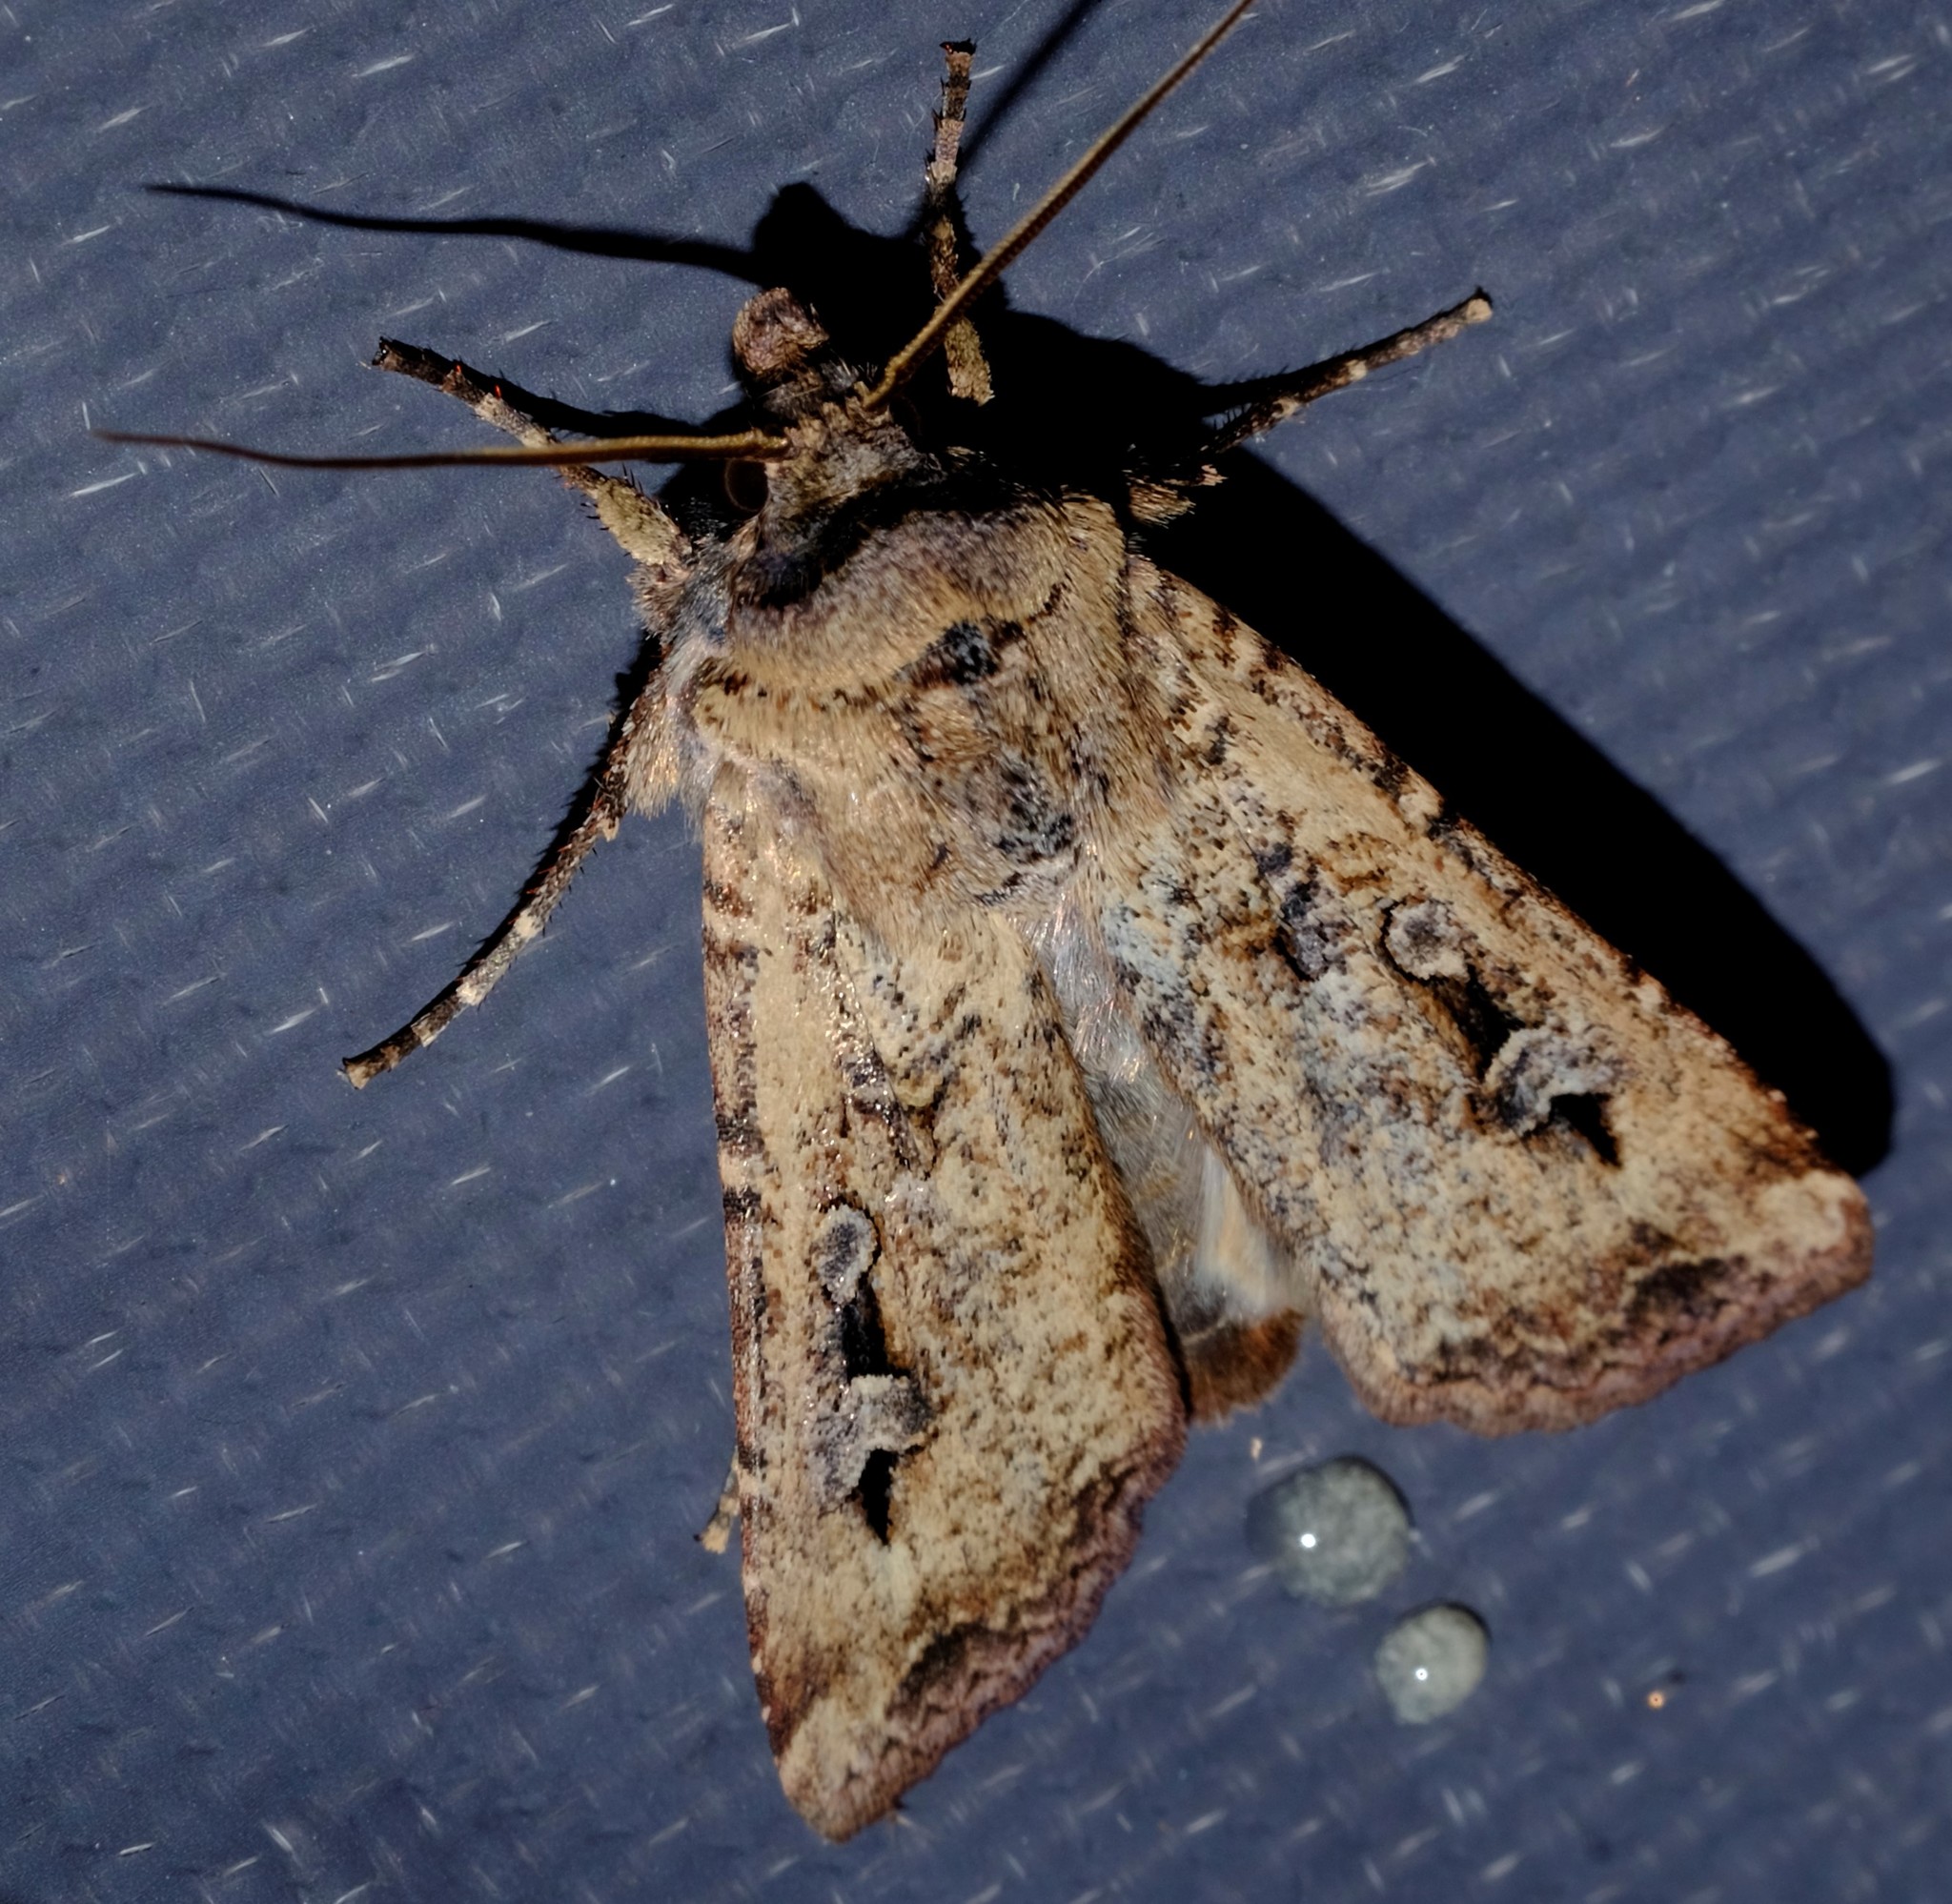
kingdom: Animalia
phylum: Arthropoda
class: Insecta
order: Lepidoptera
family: Noctuidae
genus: Agrotis
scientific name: Agrotis infusa
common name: Bogong moth
